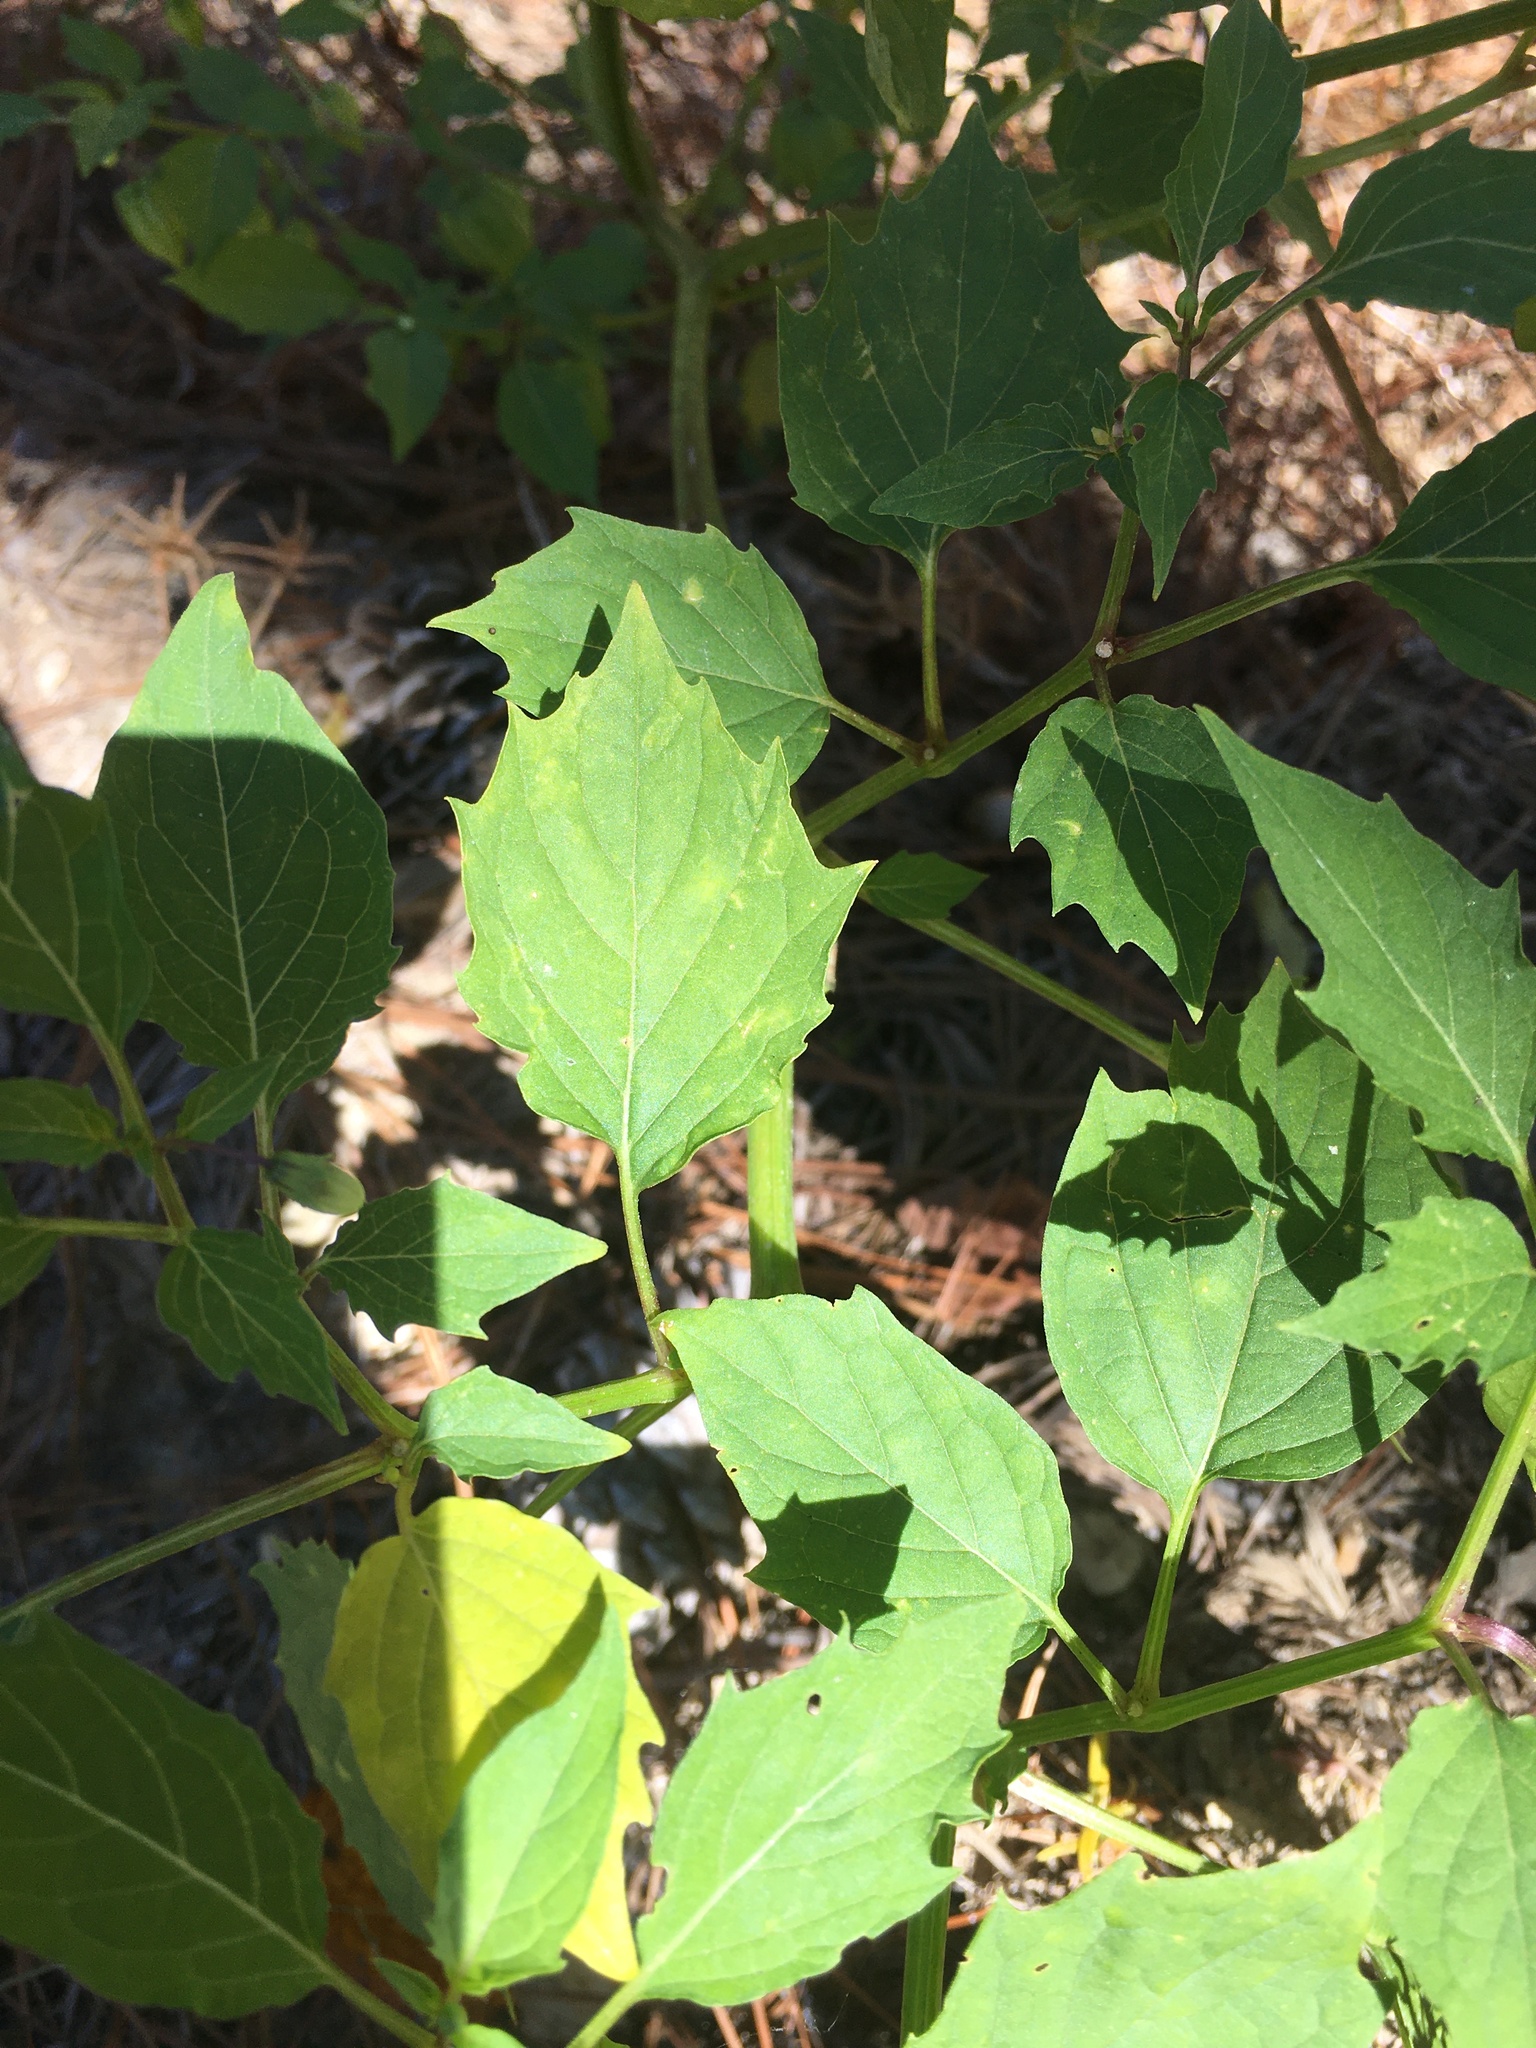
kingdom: Plantae
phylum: Tracheophyta
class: Magnoliopsida
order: Solanales
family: Solanaceae
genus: Physalis
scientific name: Physalis angulata
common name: Angular winter-cherry
